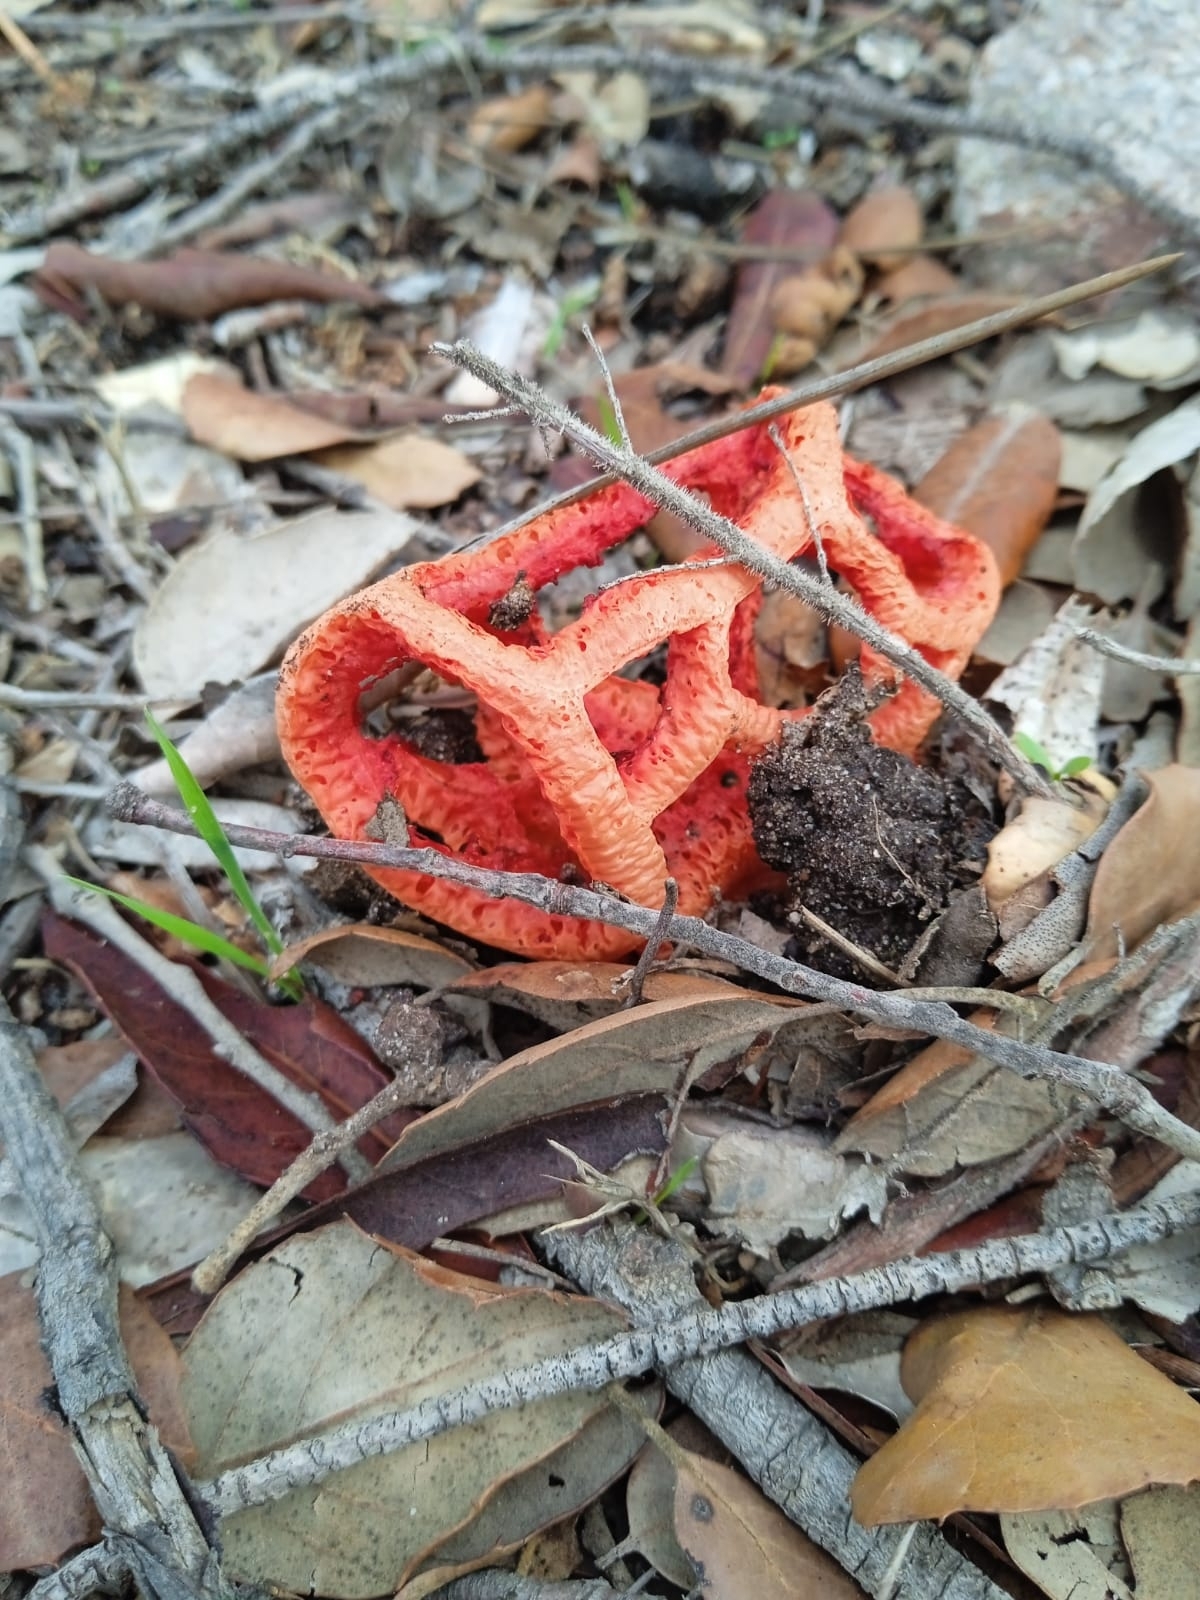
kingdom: Fungi
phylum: Basidiomycota
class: Agaricomycetes
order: Phallales
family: Phallaceae
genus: Clathrus
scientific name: Clathrus ruber
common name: Red cage
